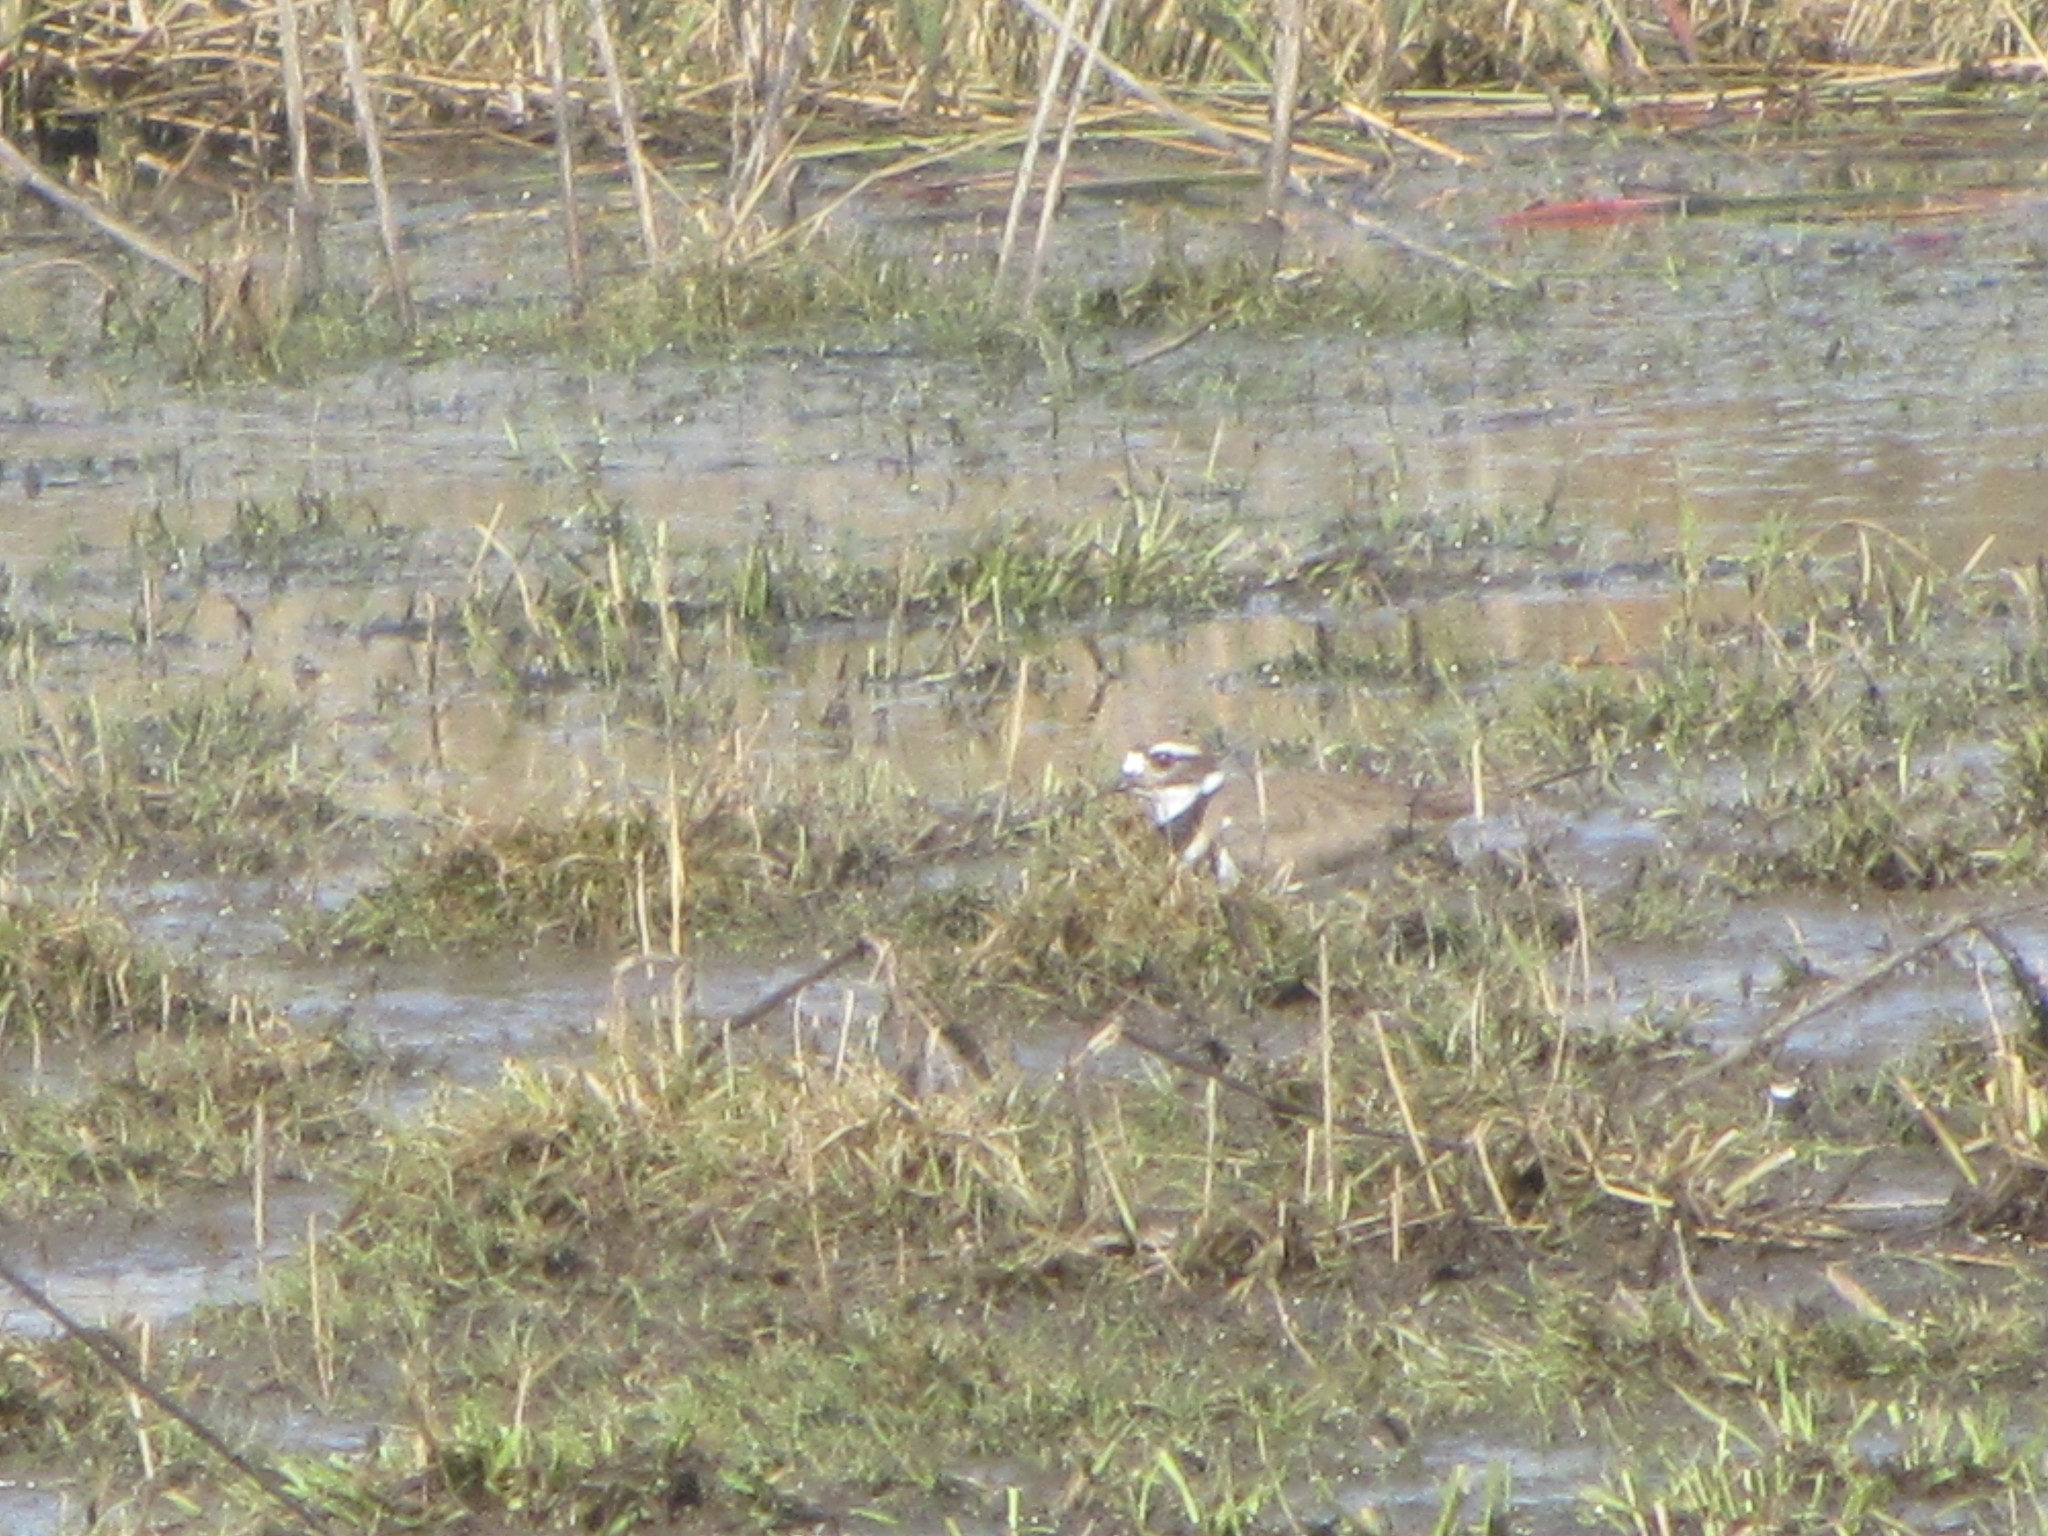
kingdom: Animalia
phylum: Chordata
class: Aves
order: Charadriiformes
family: Charadriidae
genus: Charadrius
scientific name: Charadrius vociferus
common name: Killdeer
